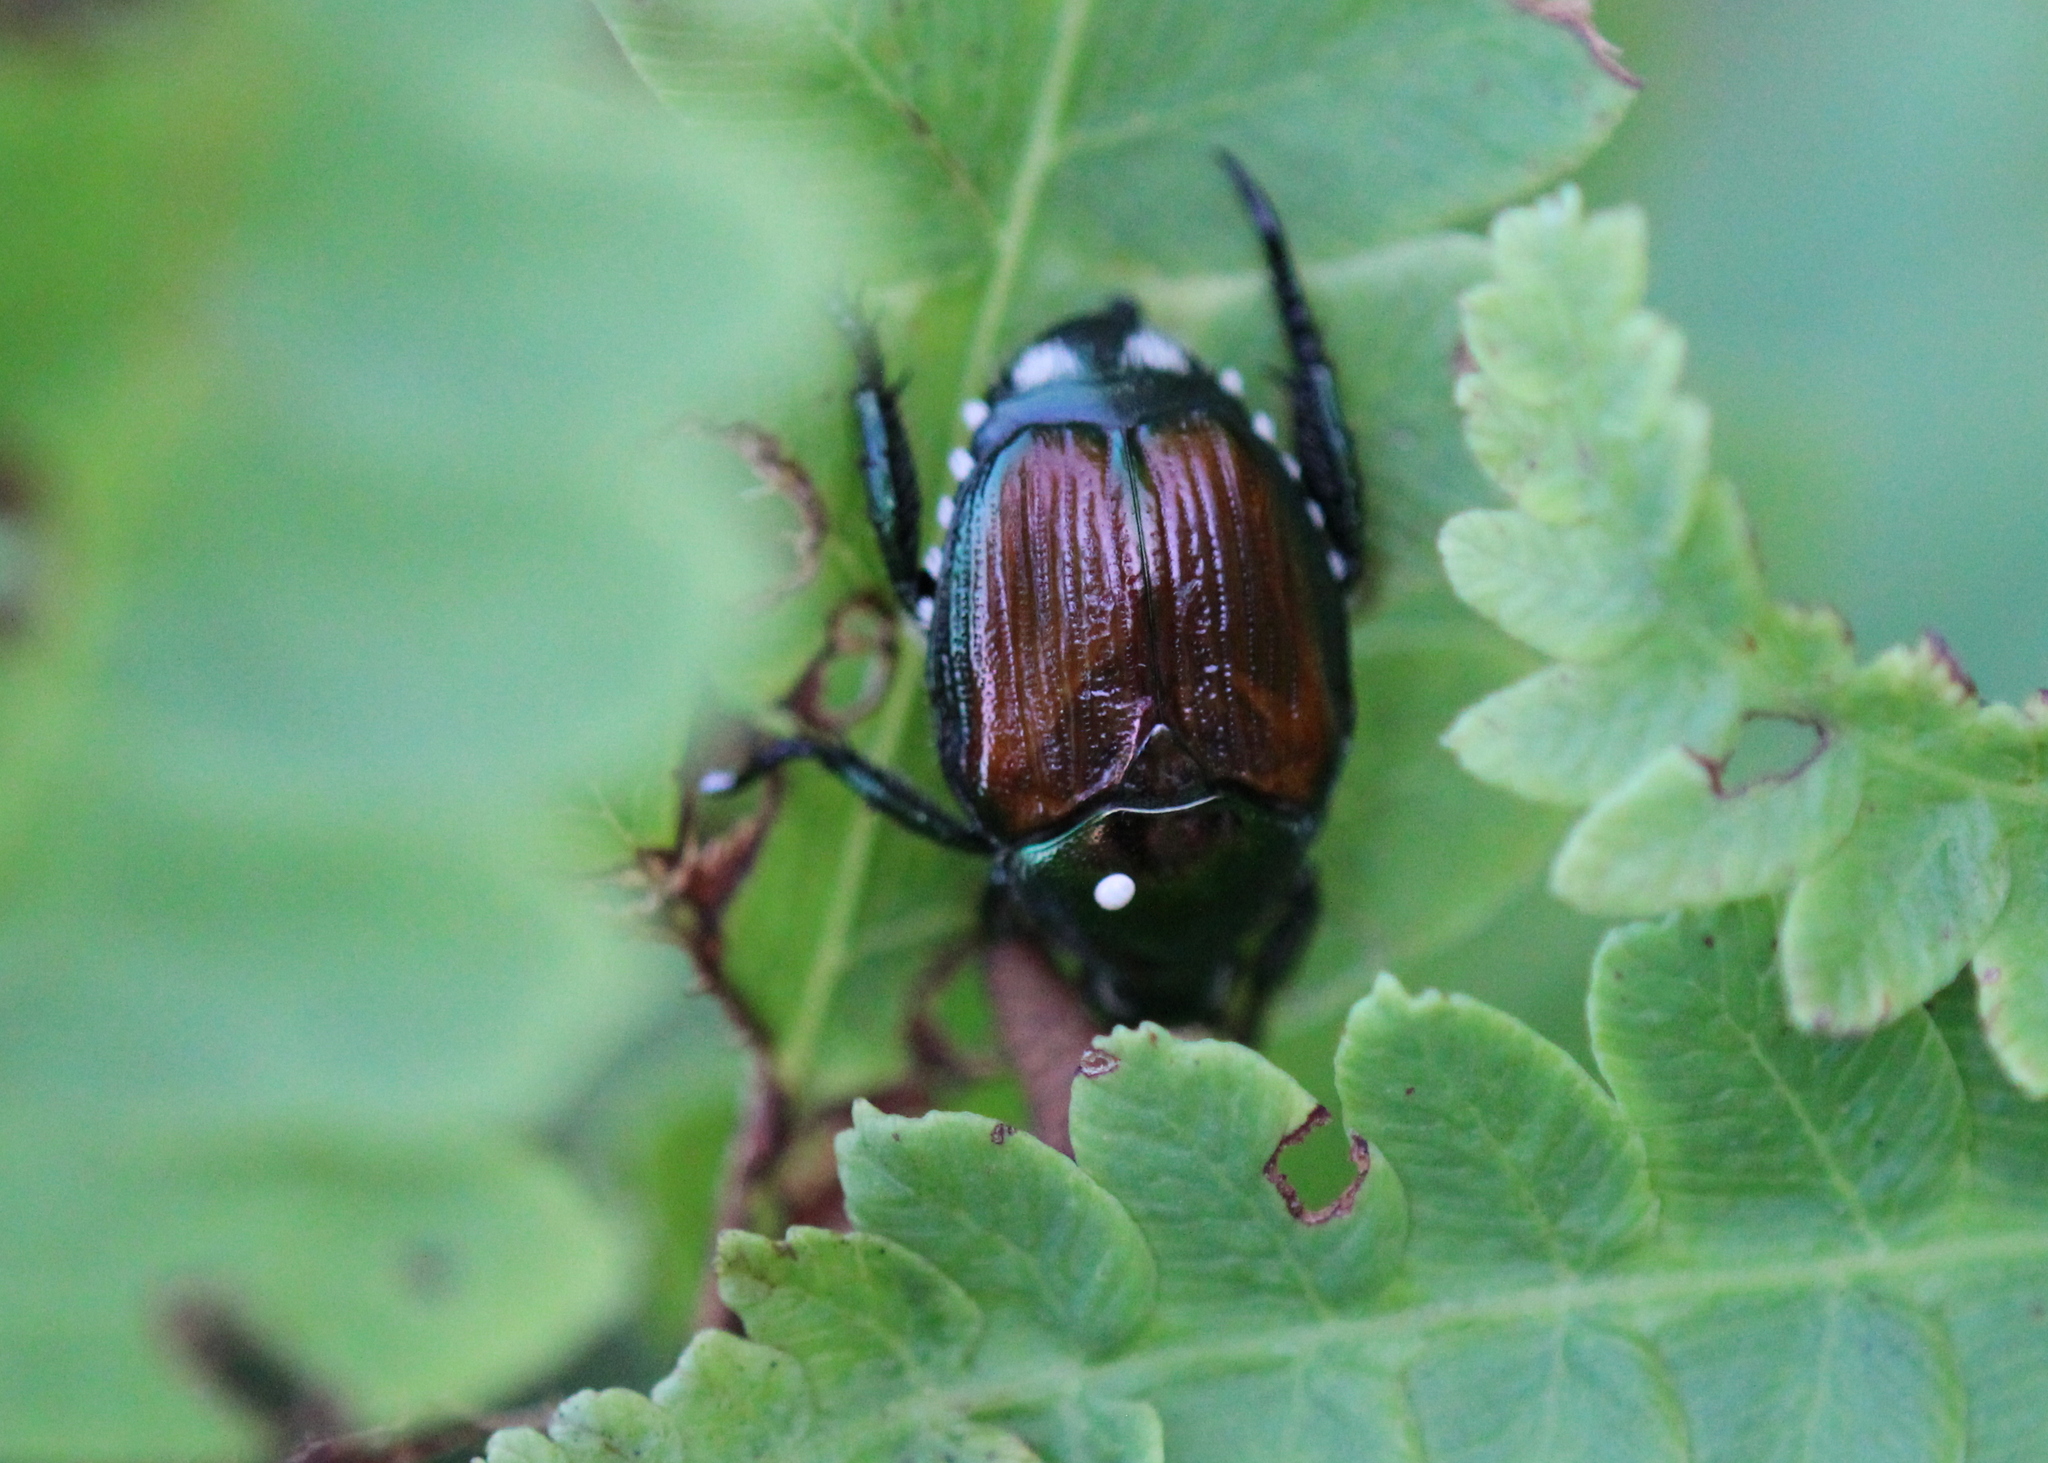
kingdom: Animalia
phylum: Arthropoda
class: Insecta
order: Coleoptera
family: Scarabaeidae
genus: Popillia
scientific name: Popillia japonica
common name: Japanese beetle
